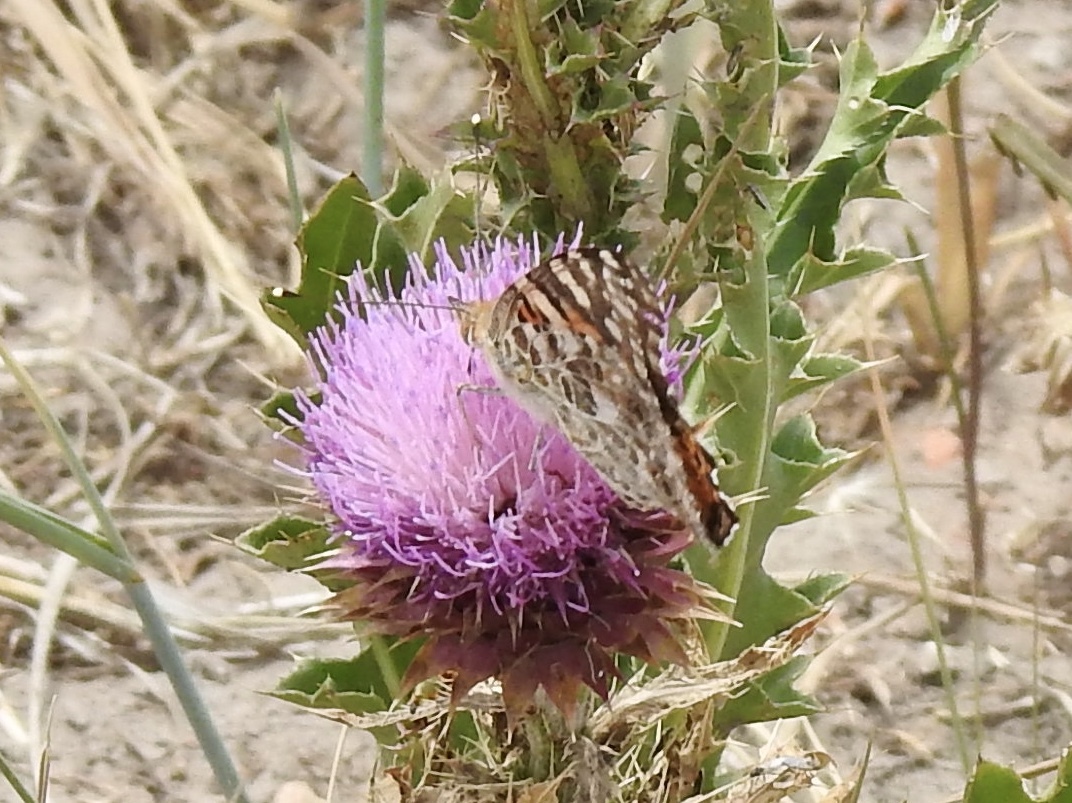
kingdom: Animalia
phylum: Arthropoda
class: Insecta
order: Lepidoptera
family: Nymphalidae
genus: Vanessa
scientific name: Vanessa cardui
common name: Painted lady
